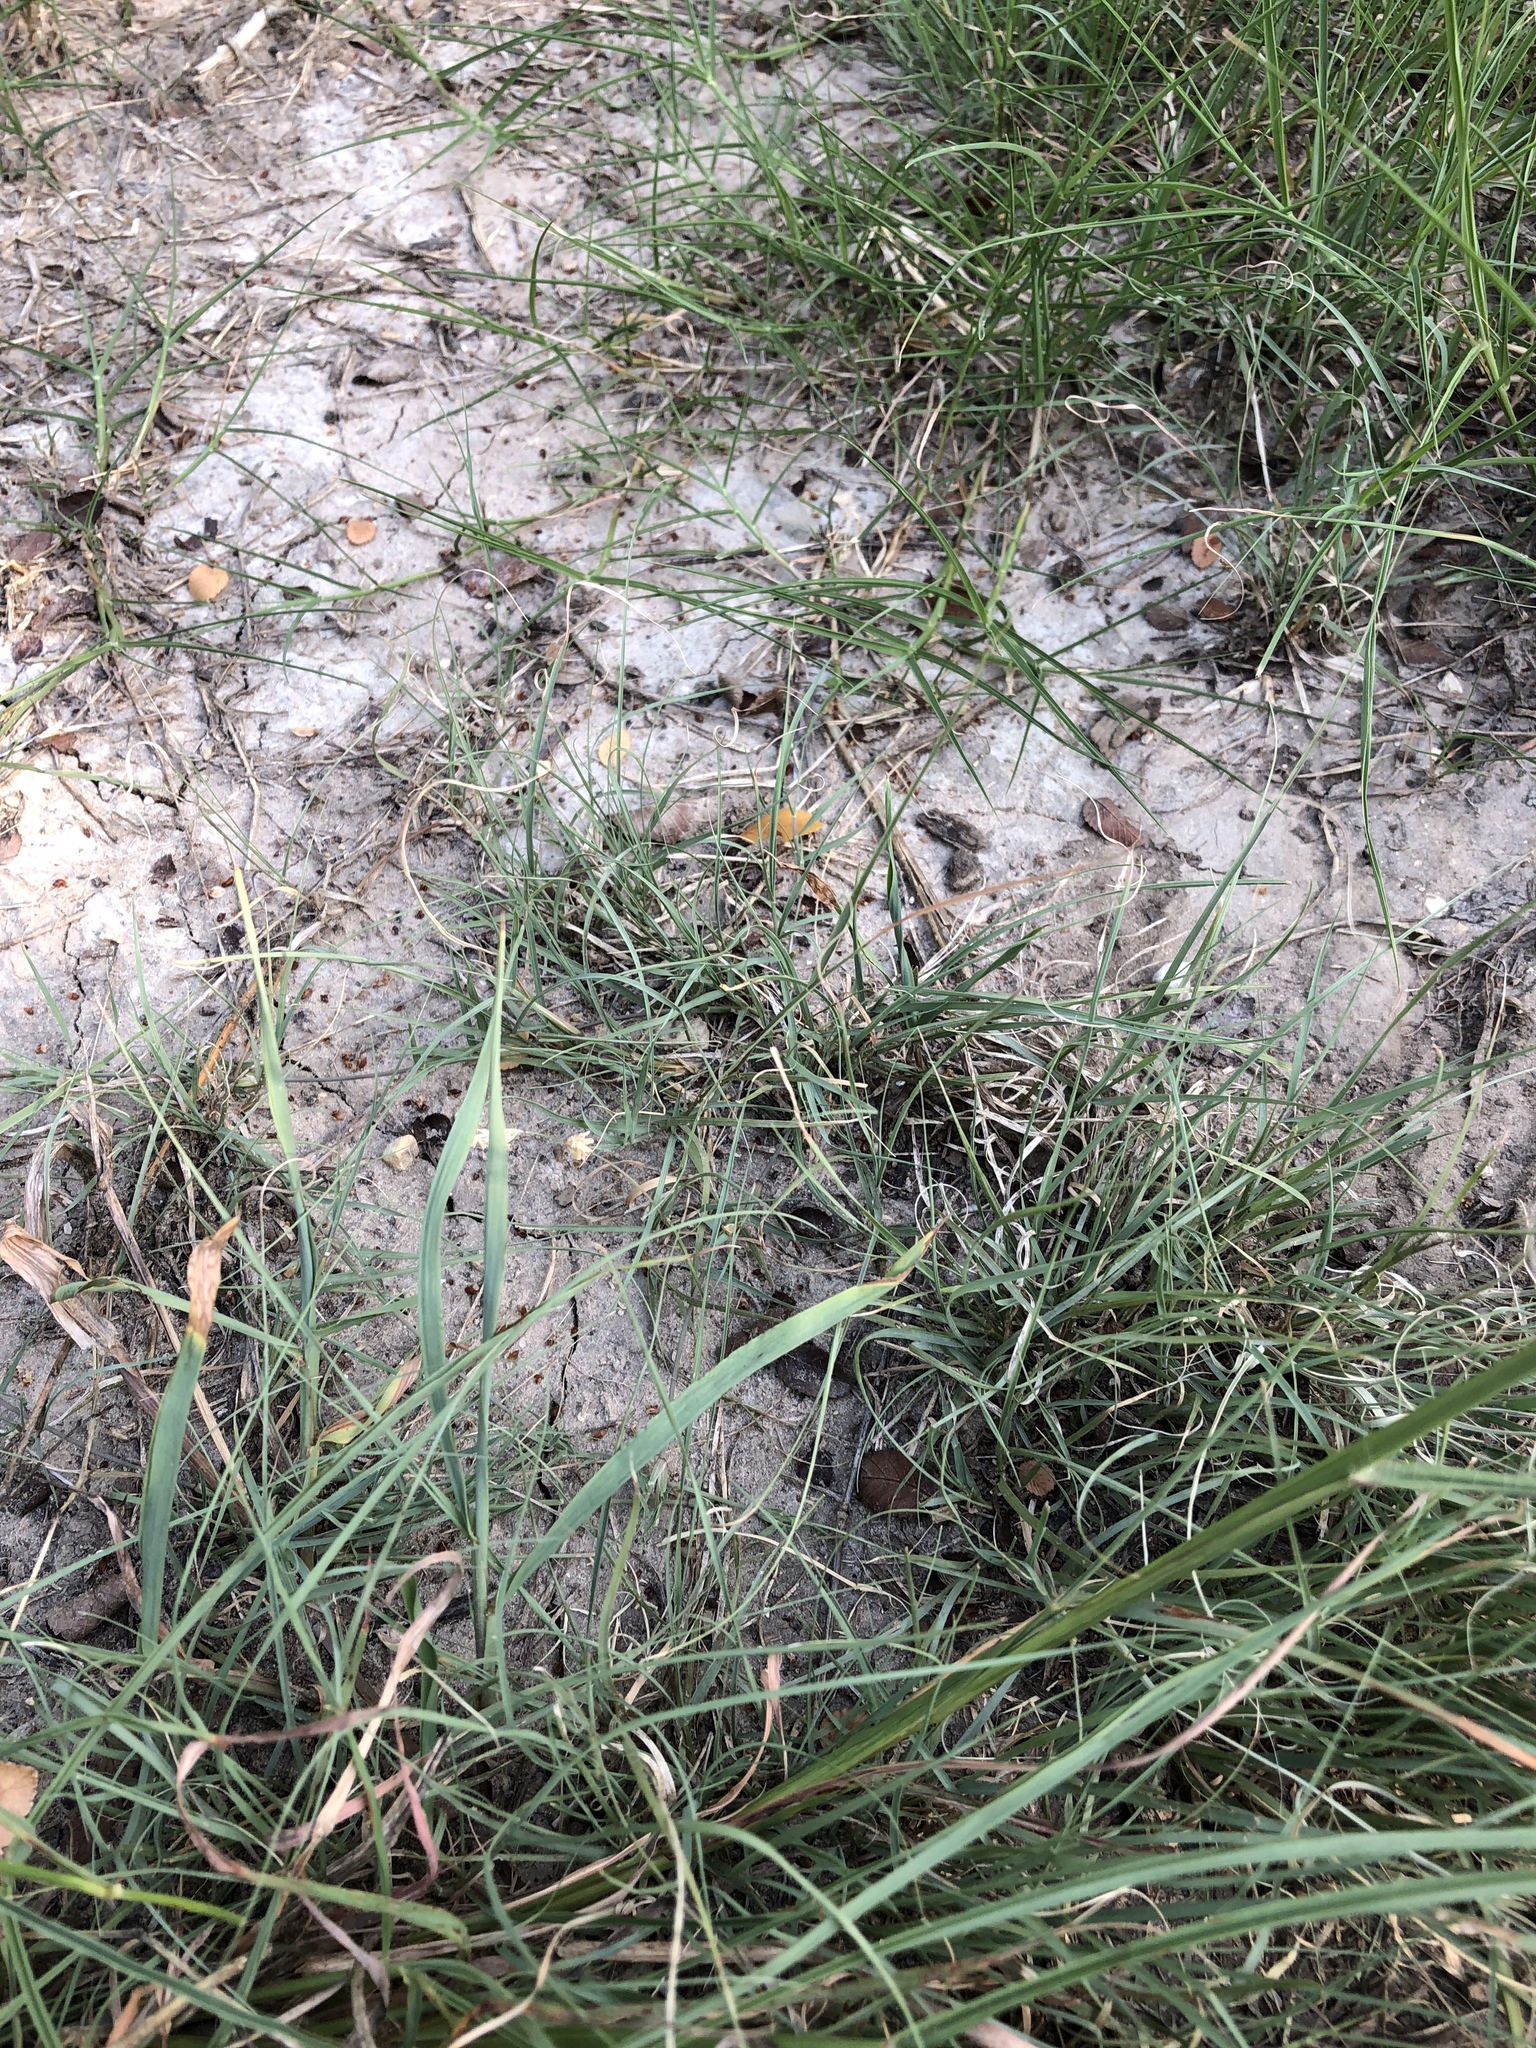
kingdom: Plantae
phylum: Tracheophyta
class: Liliopsida
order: Poales
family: Poaceae
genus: Bouteloua
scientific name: Bouteloua dactyloides
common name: Buffalo grass
